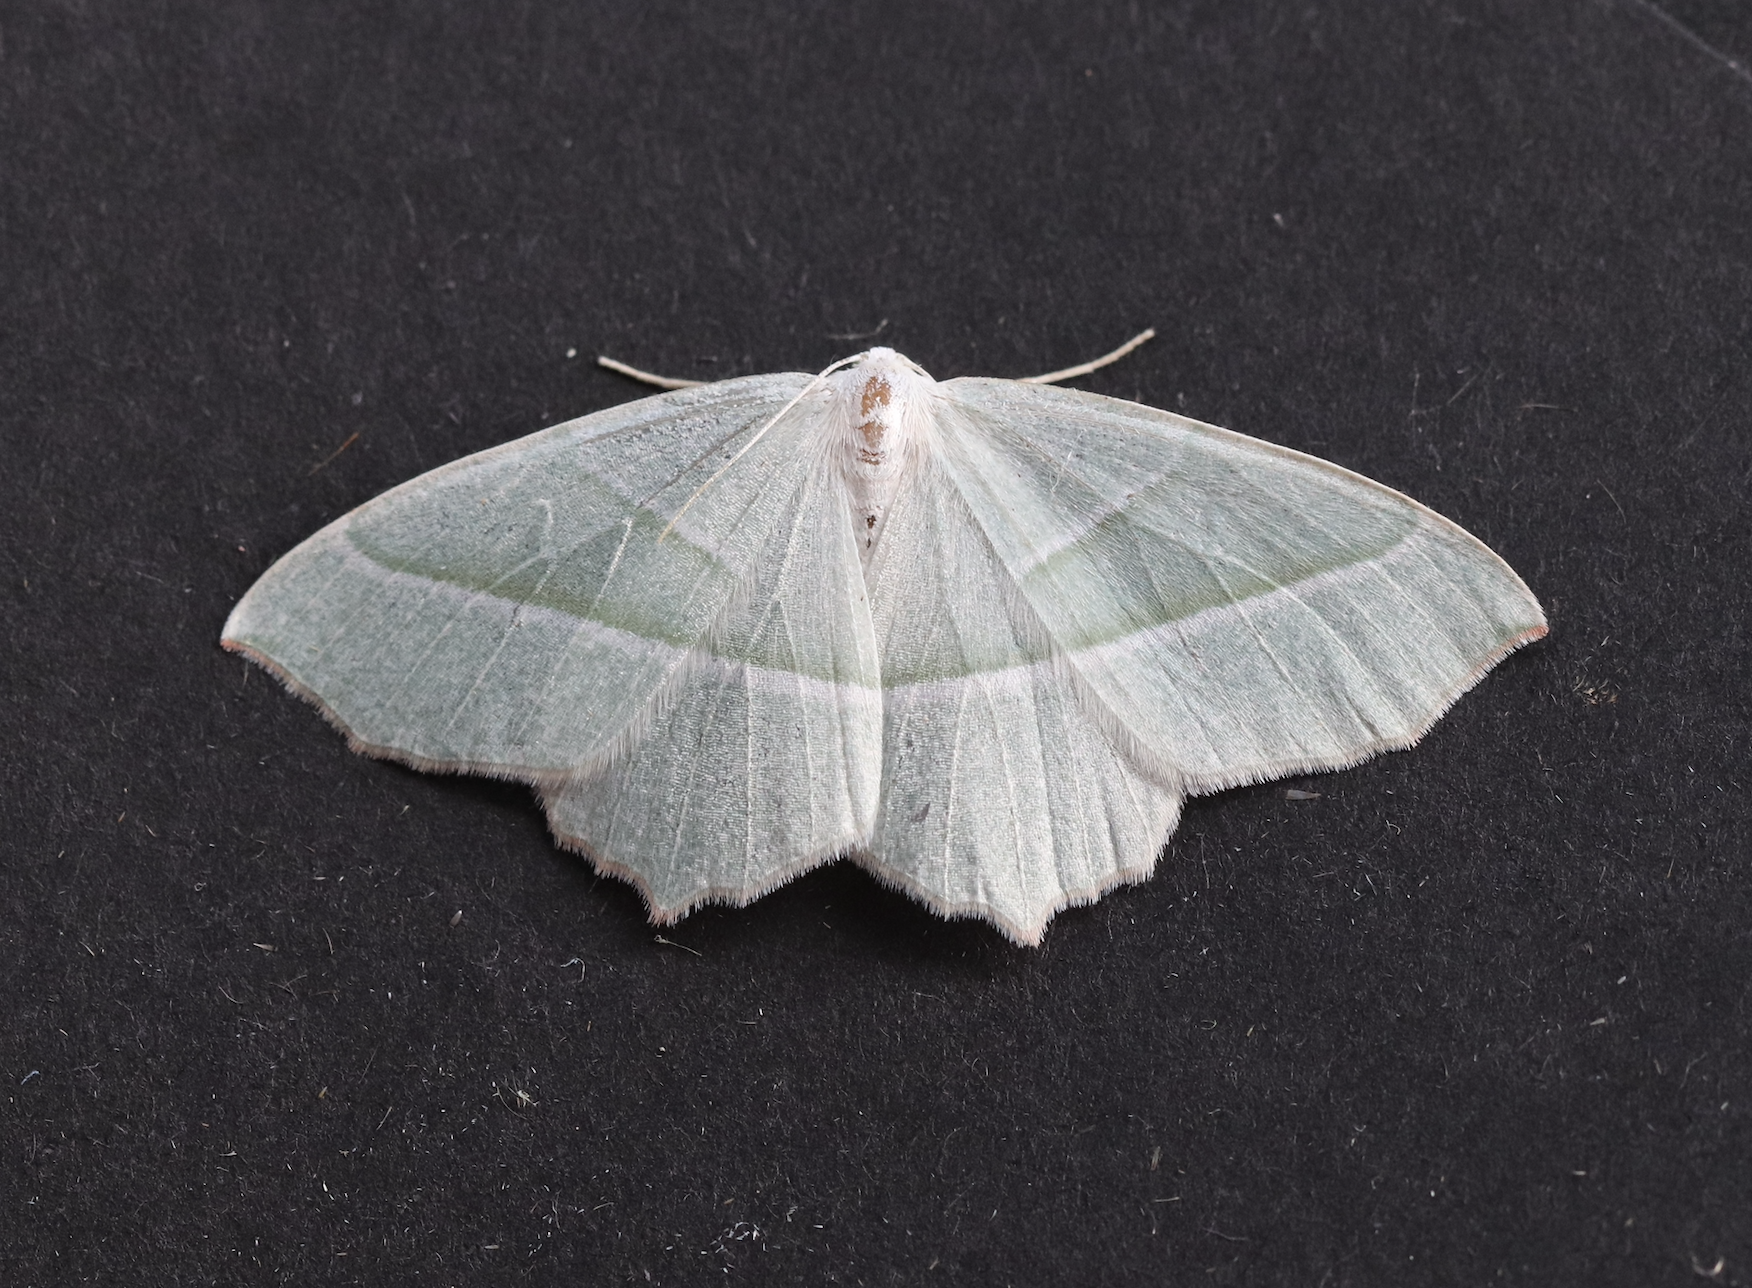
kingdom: Animalia
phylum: Arthropoda
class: Insecta
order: Lepidoptera
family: Geometridae
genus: Campaea
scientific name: Campaea margaritaria
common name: Light emerald
